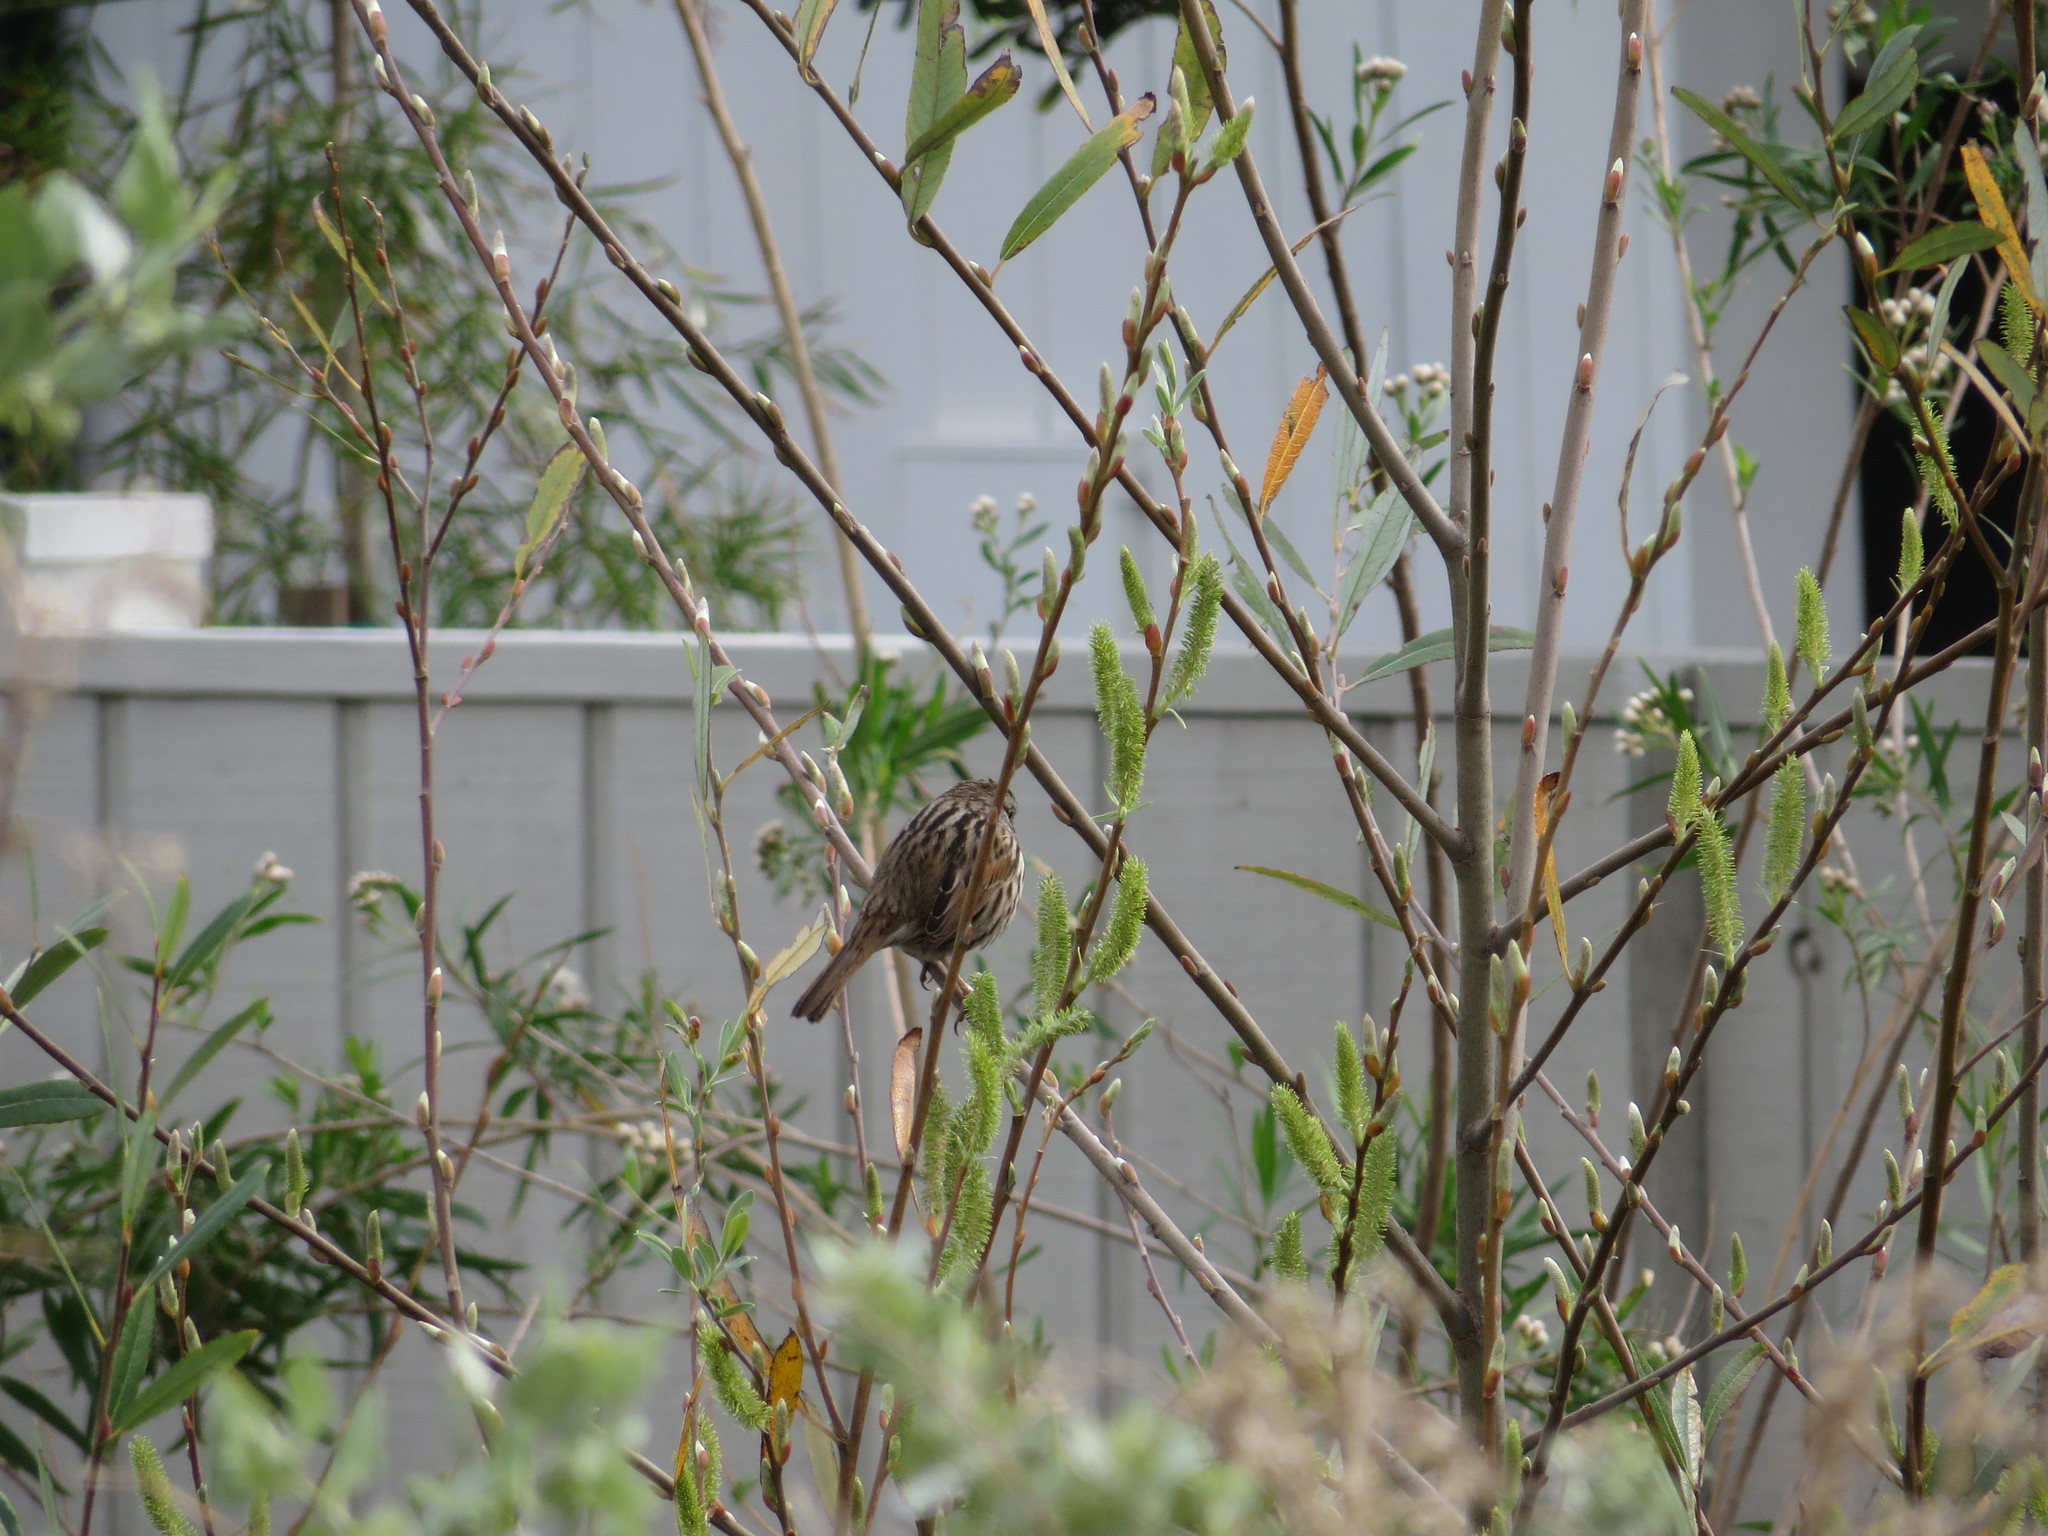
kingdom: Animalia
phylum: Chordata
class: Aves
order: Passeriformes
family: Passerellidae
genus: Melospiza
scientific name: Melospiza melodia
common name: Song sparrow
